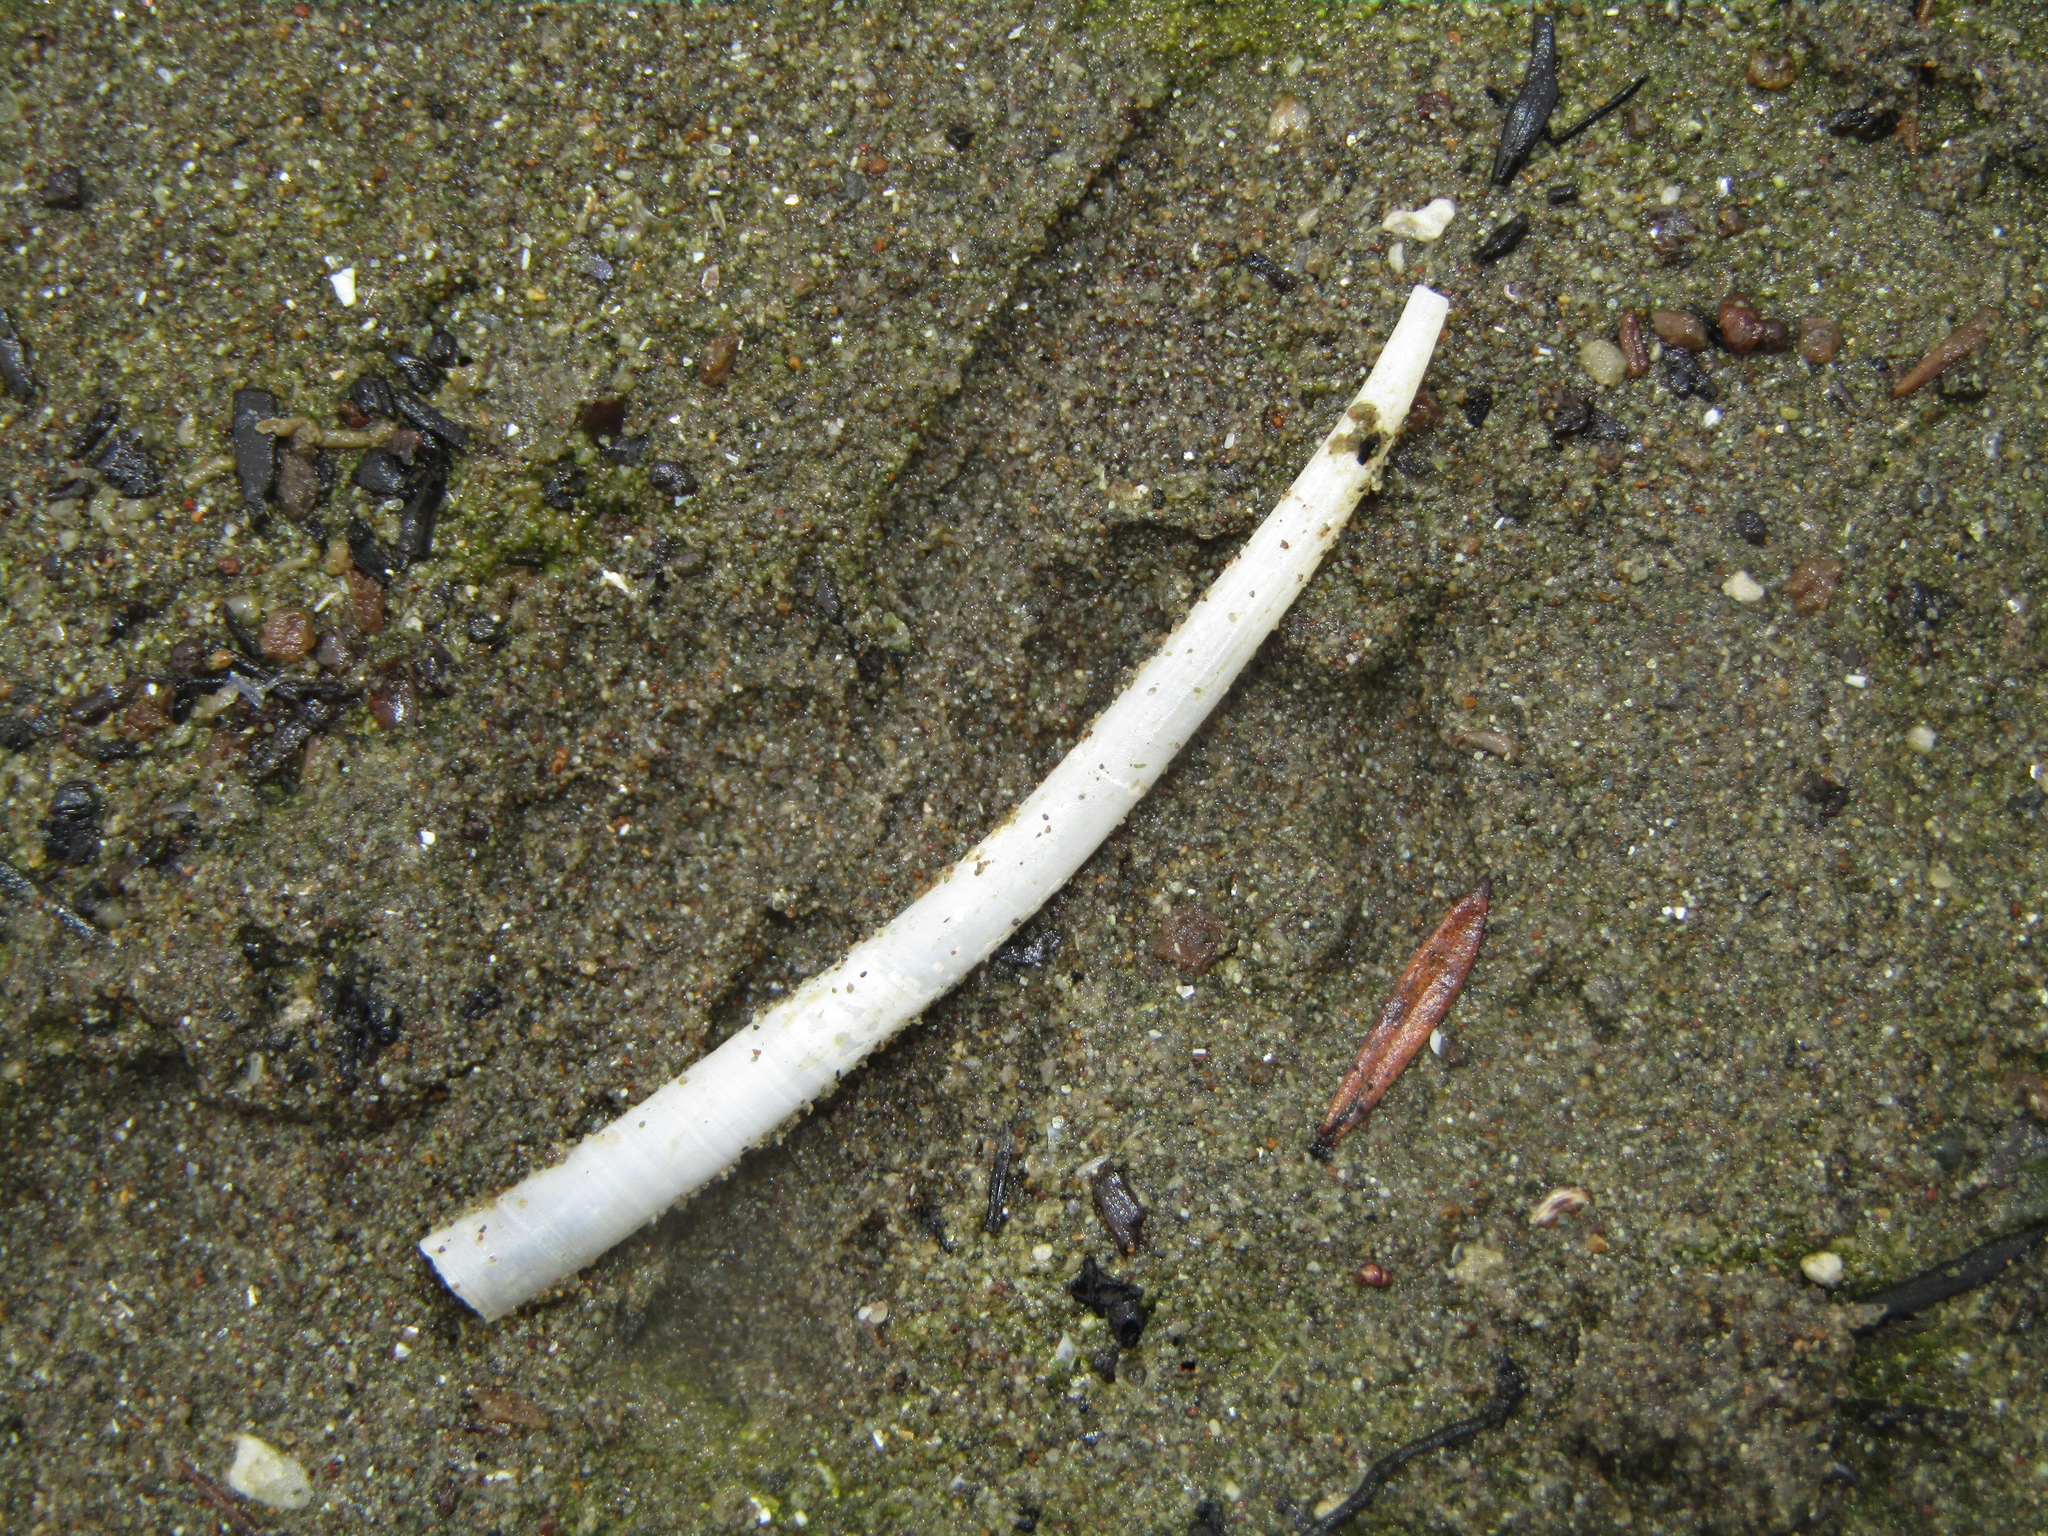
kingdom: Animalia
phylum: Mollusca
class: Scaphopoda
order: Dentaliida
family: Dentaliidae
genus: Antalis
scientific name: Antalis nana
